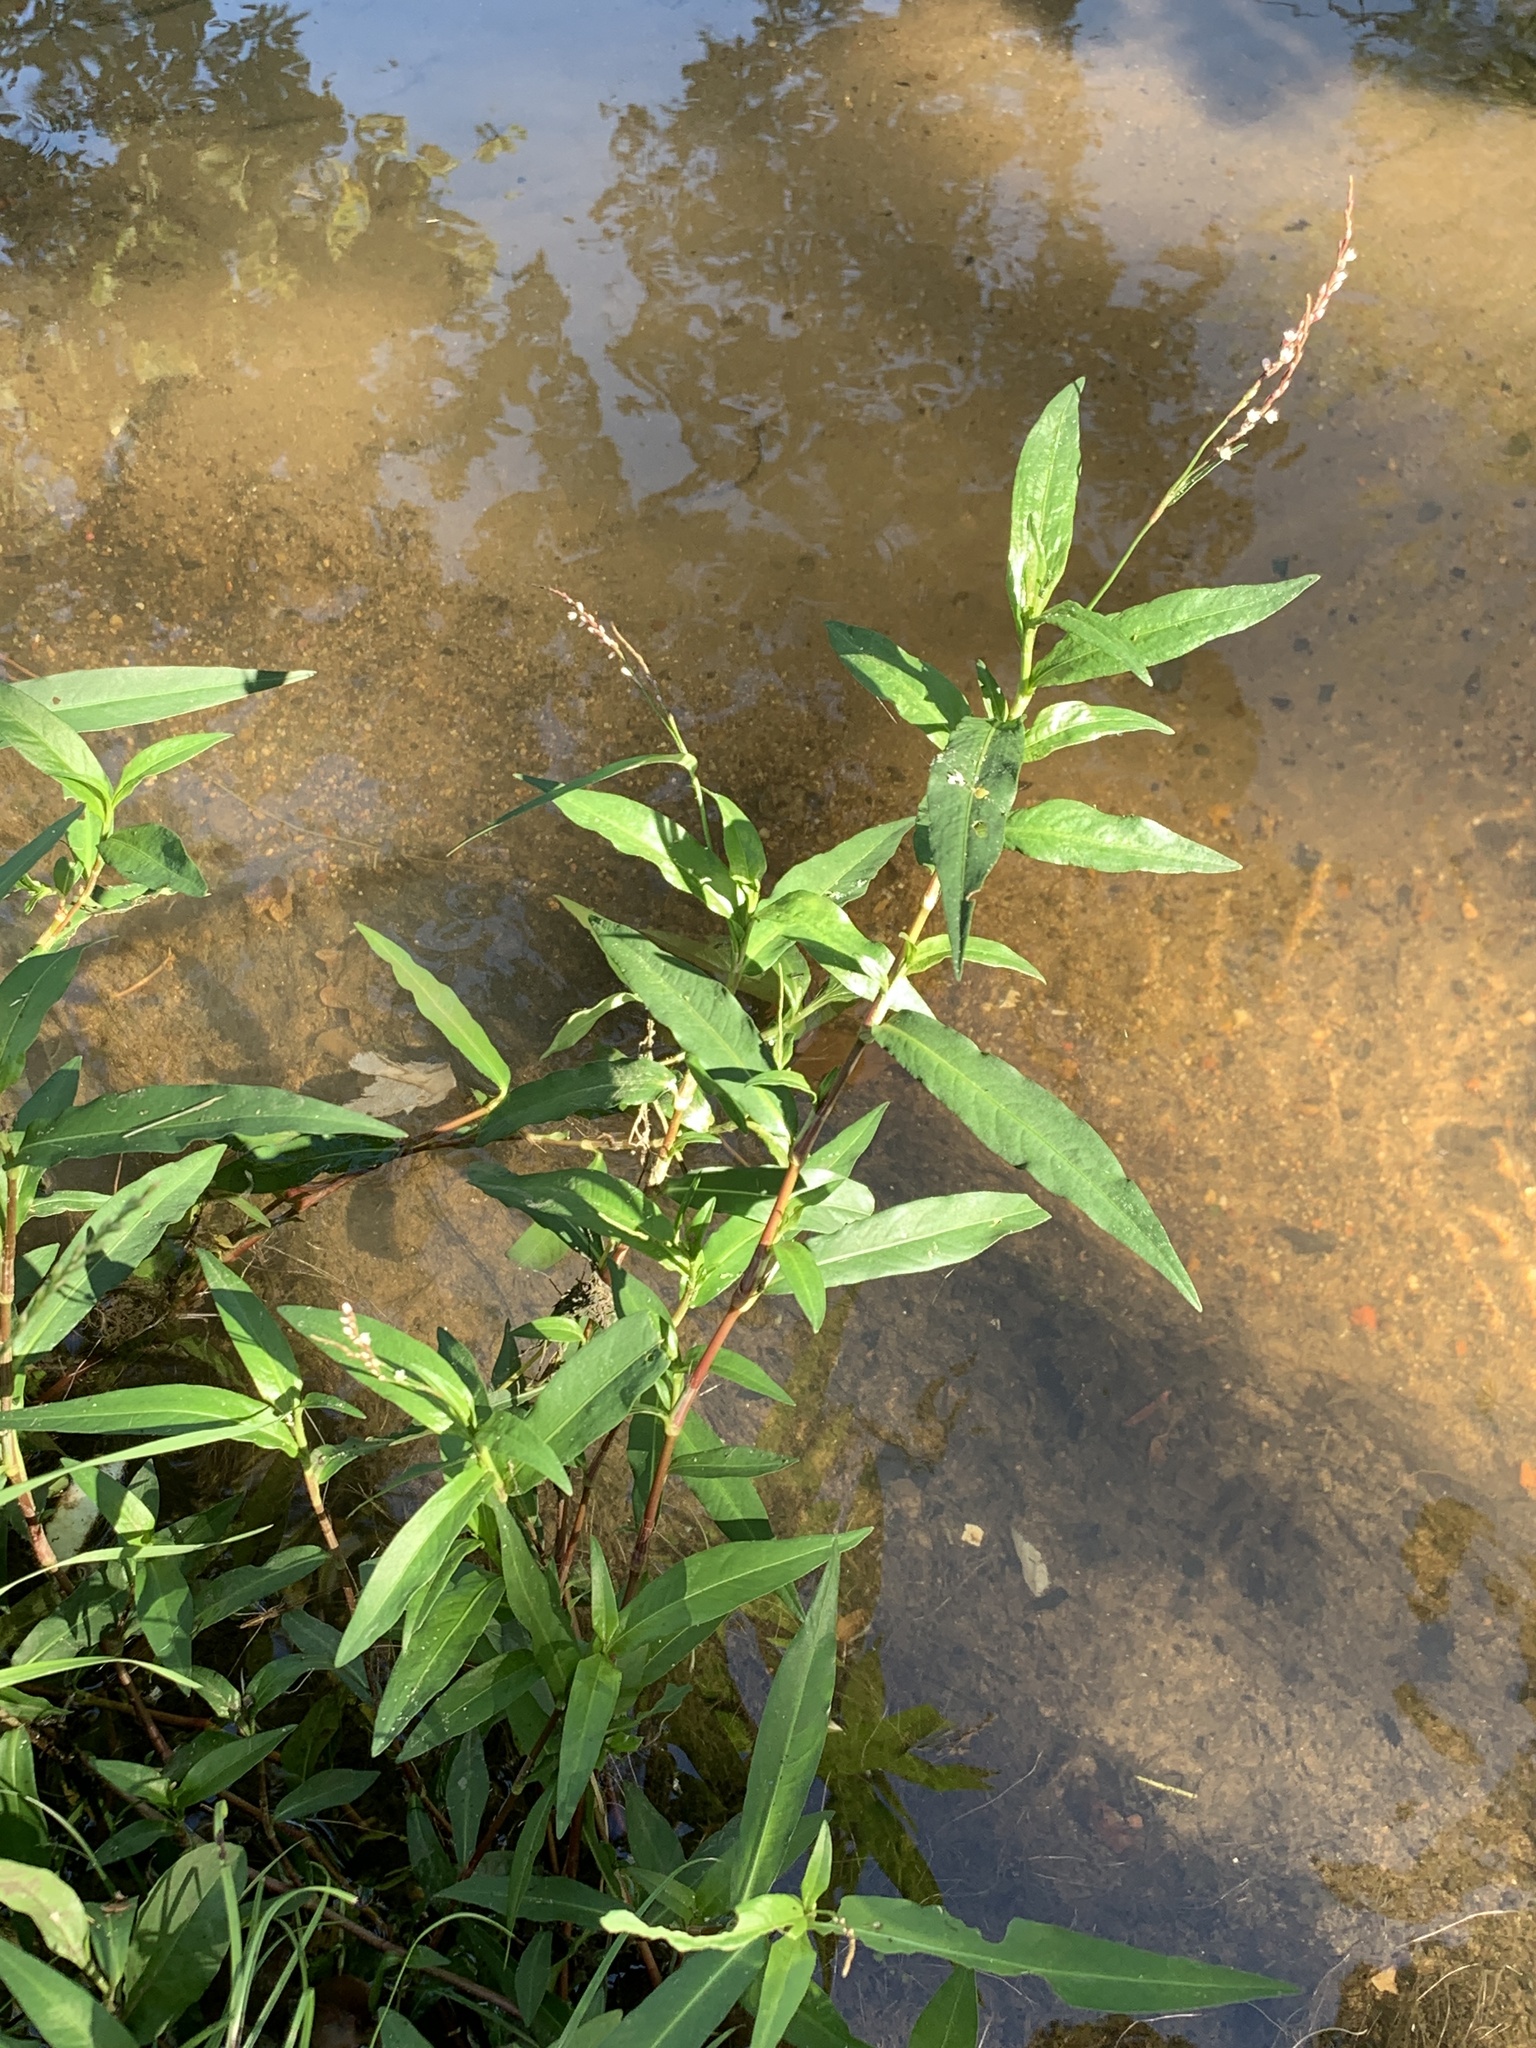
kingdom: Plantae
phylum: Tracheophyta
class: Magnoliopsida
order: Caryophyllales
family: Polygonaceae
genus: Persicaria
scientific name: Persicaria decipiens
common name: Willow-weed
